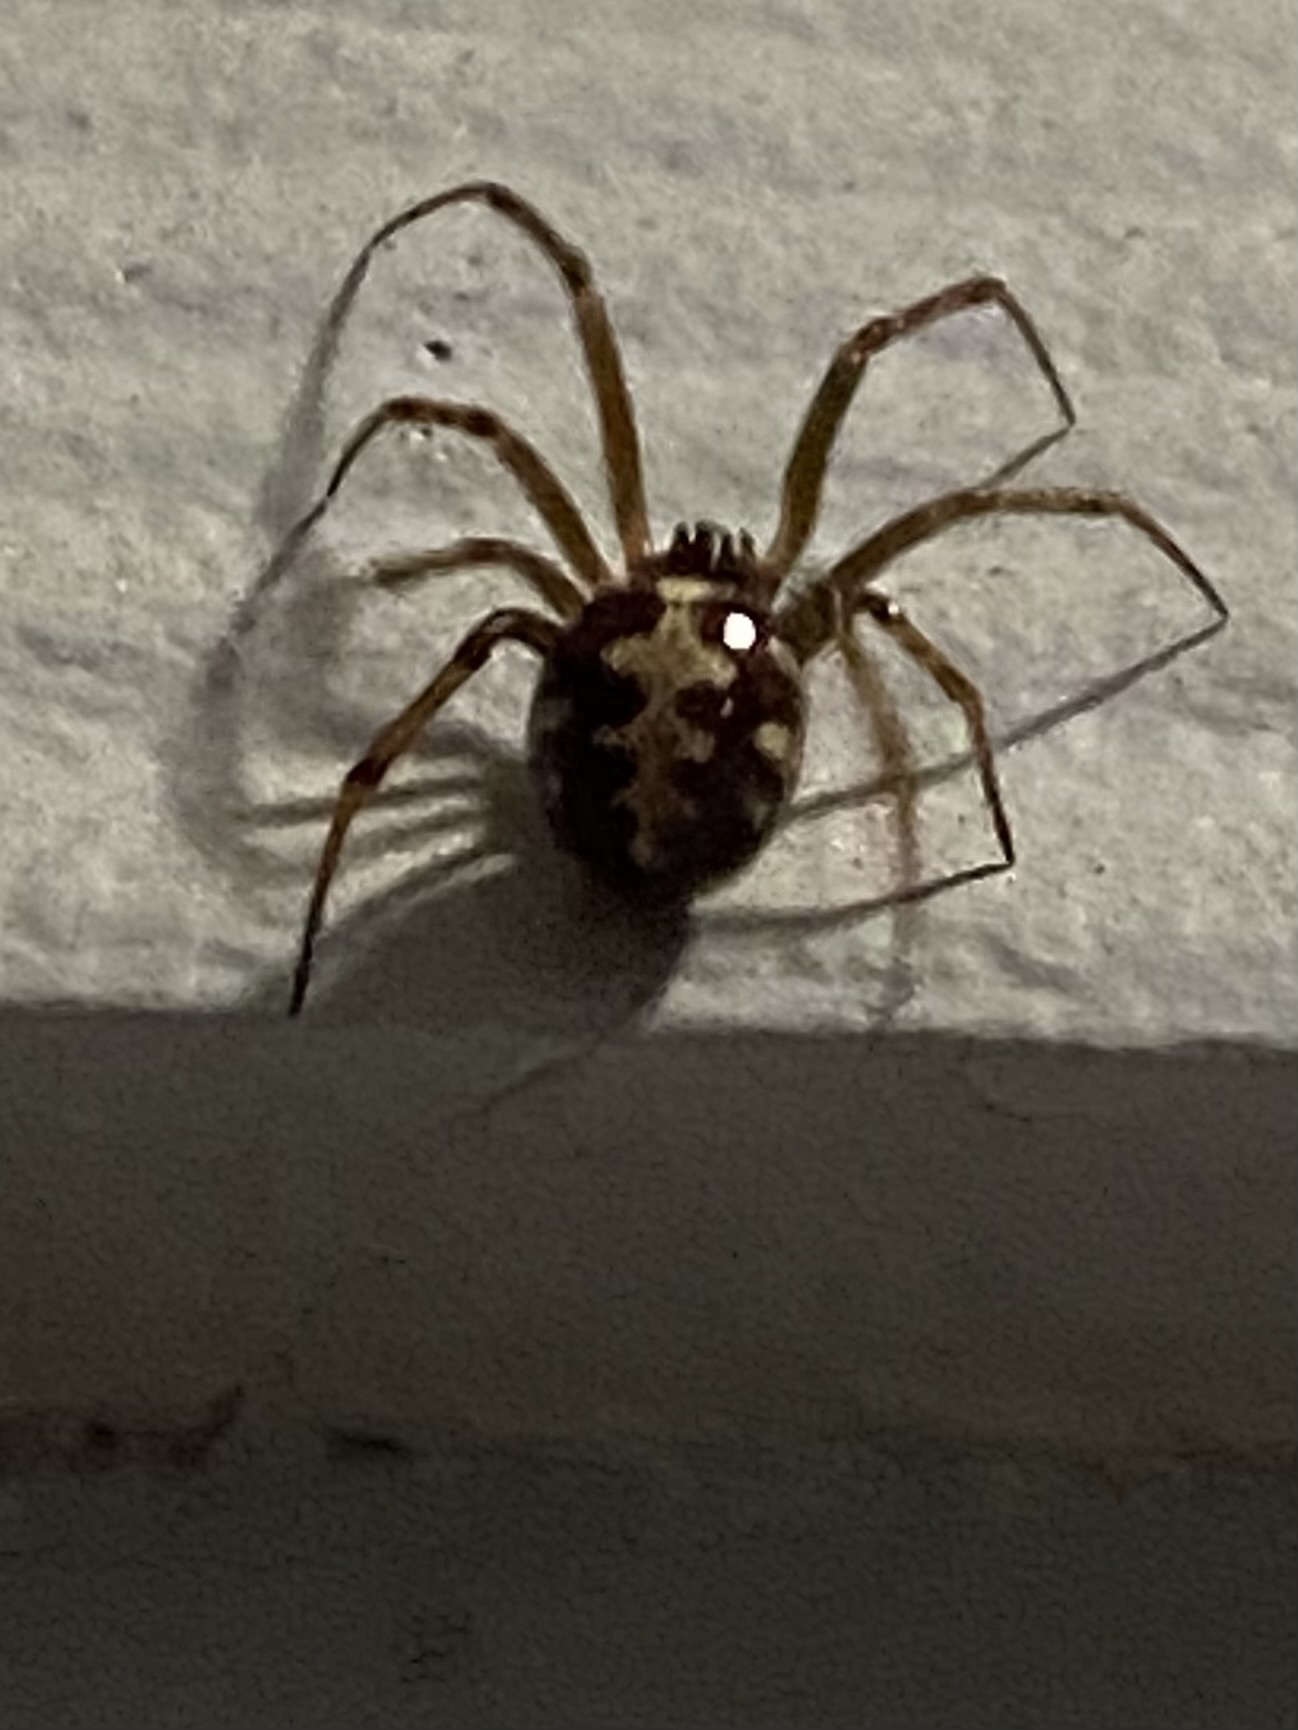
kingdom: Animalia
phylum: Arthropoda
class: Arachnida
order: Araneae
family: Theridiidae
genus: Steatoda
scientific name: Steatoda triangulosa
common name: Triangulate bud spider
